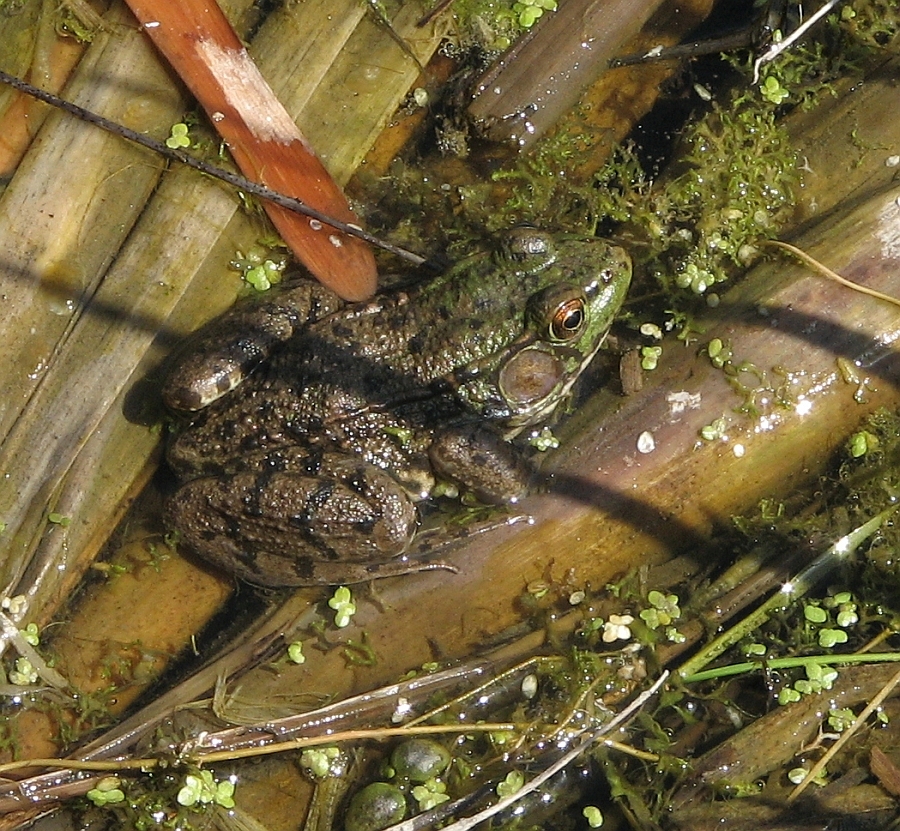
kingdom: Animalia
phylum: Chordata
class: Amphibia
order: Anura
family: Ranidae
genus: Lithobates
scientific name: Lithobates clamitans
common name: Green frog
